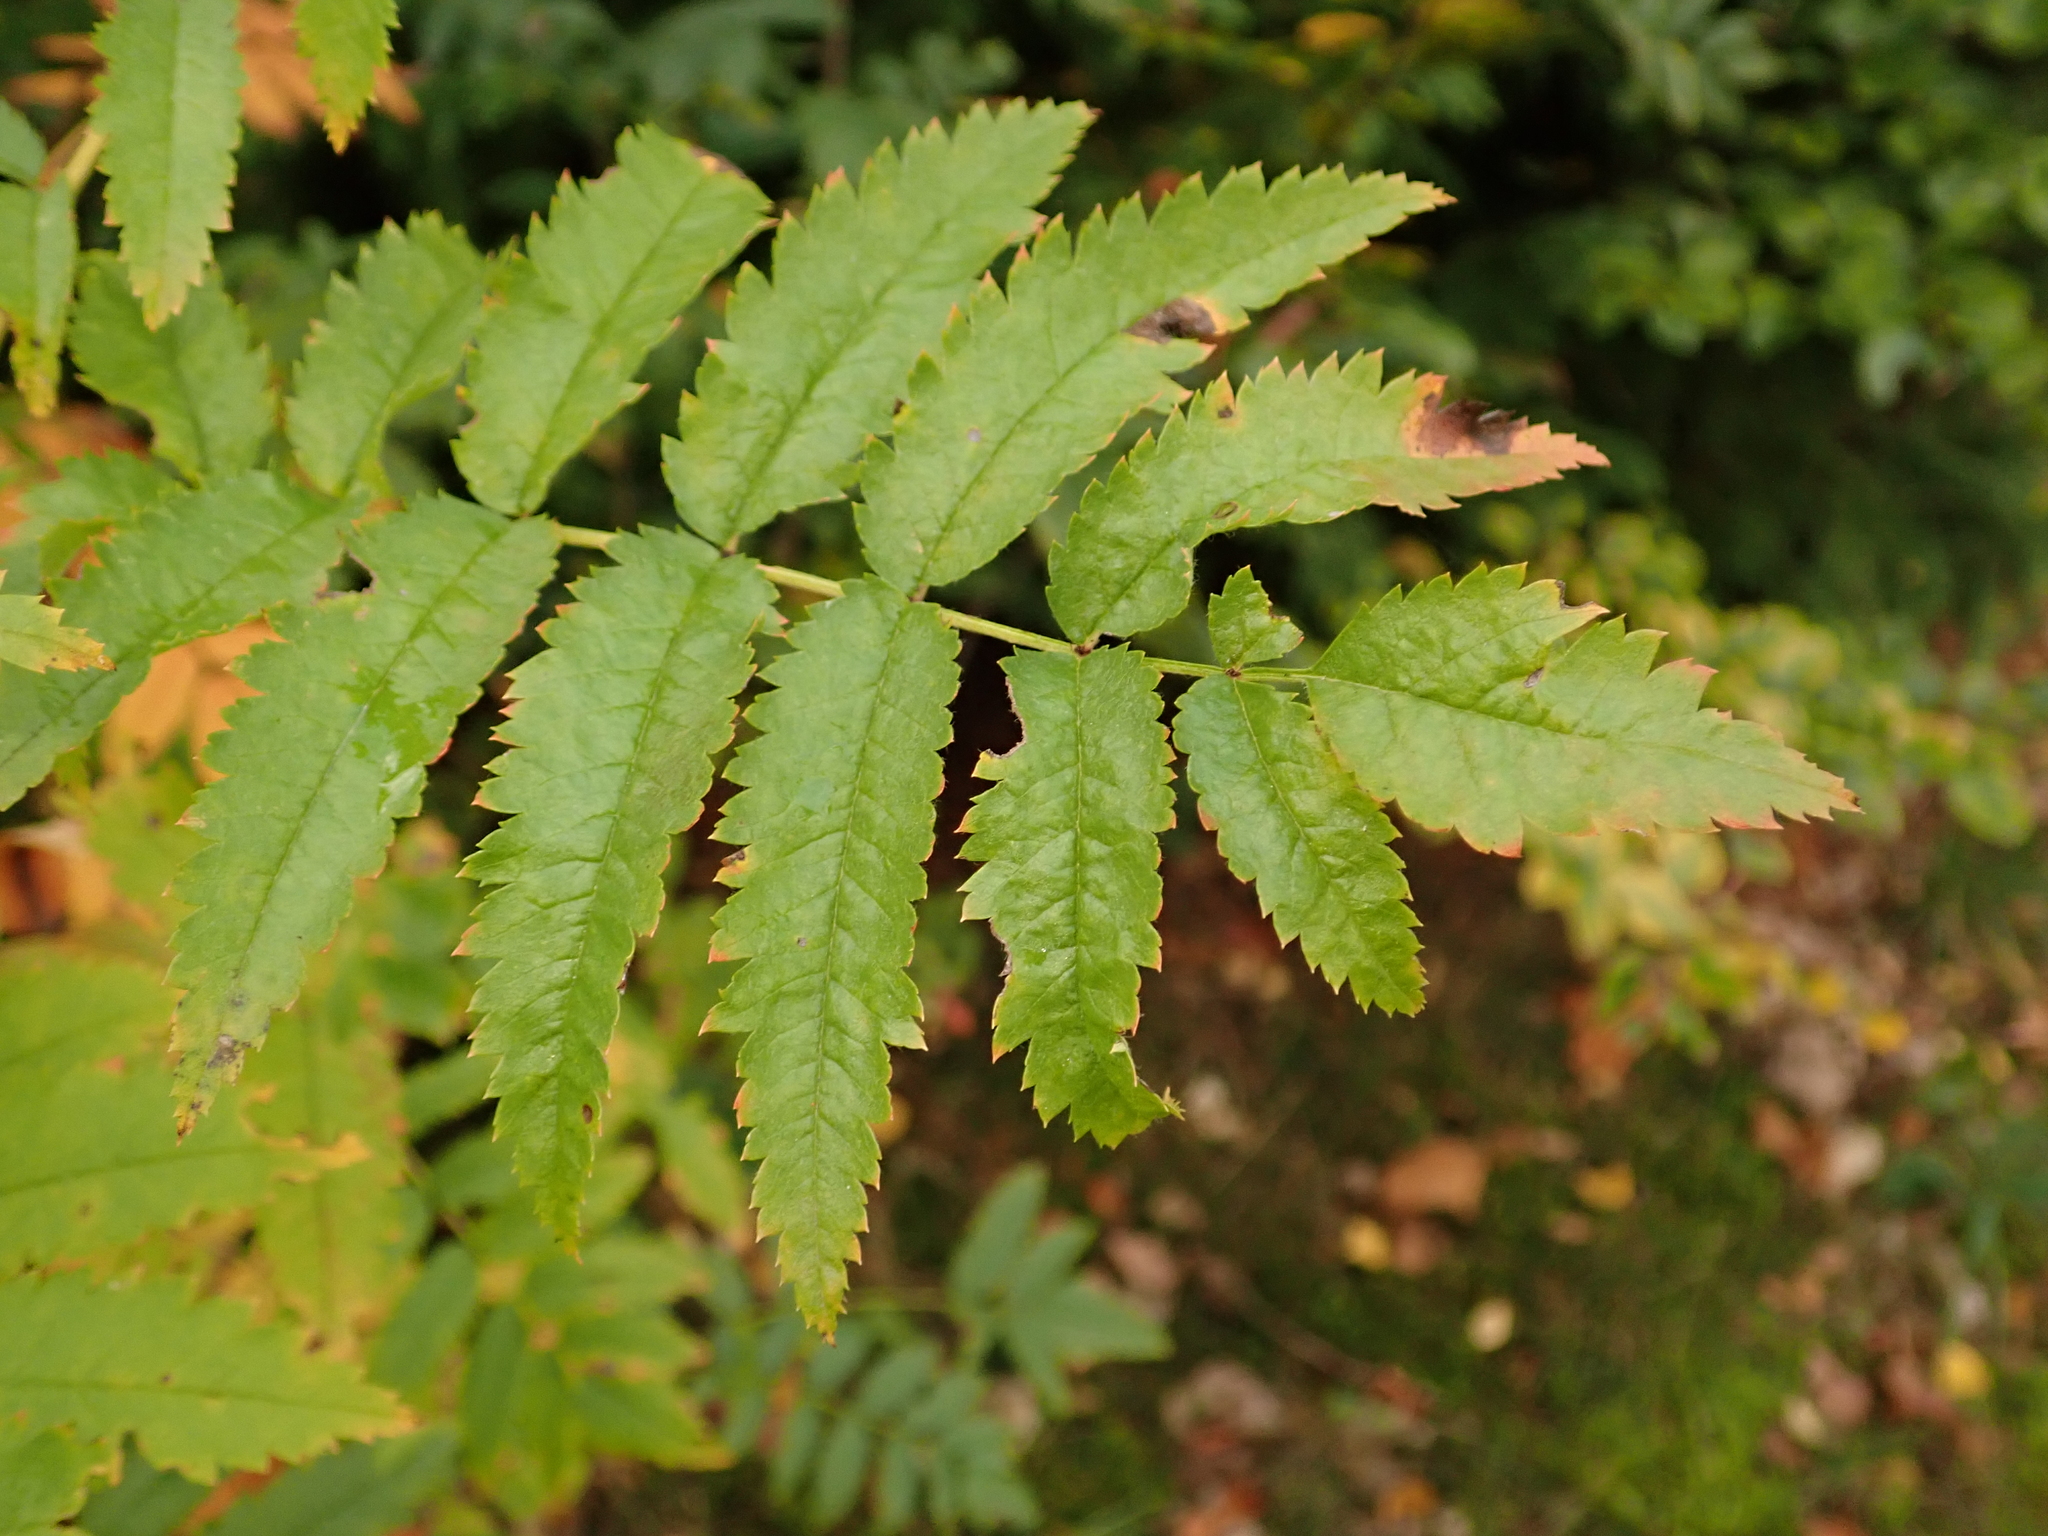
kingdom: Plantae
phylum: Tracheophyta
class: Magnoliopsida
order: Rosales
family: Rosaceae
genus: Sorbus
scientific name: Sorbus aucuparia
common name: Rowan
